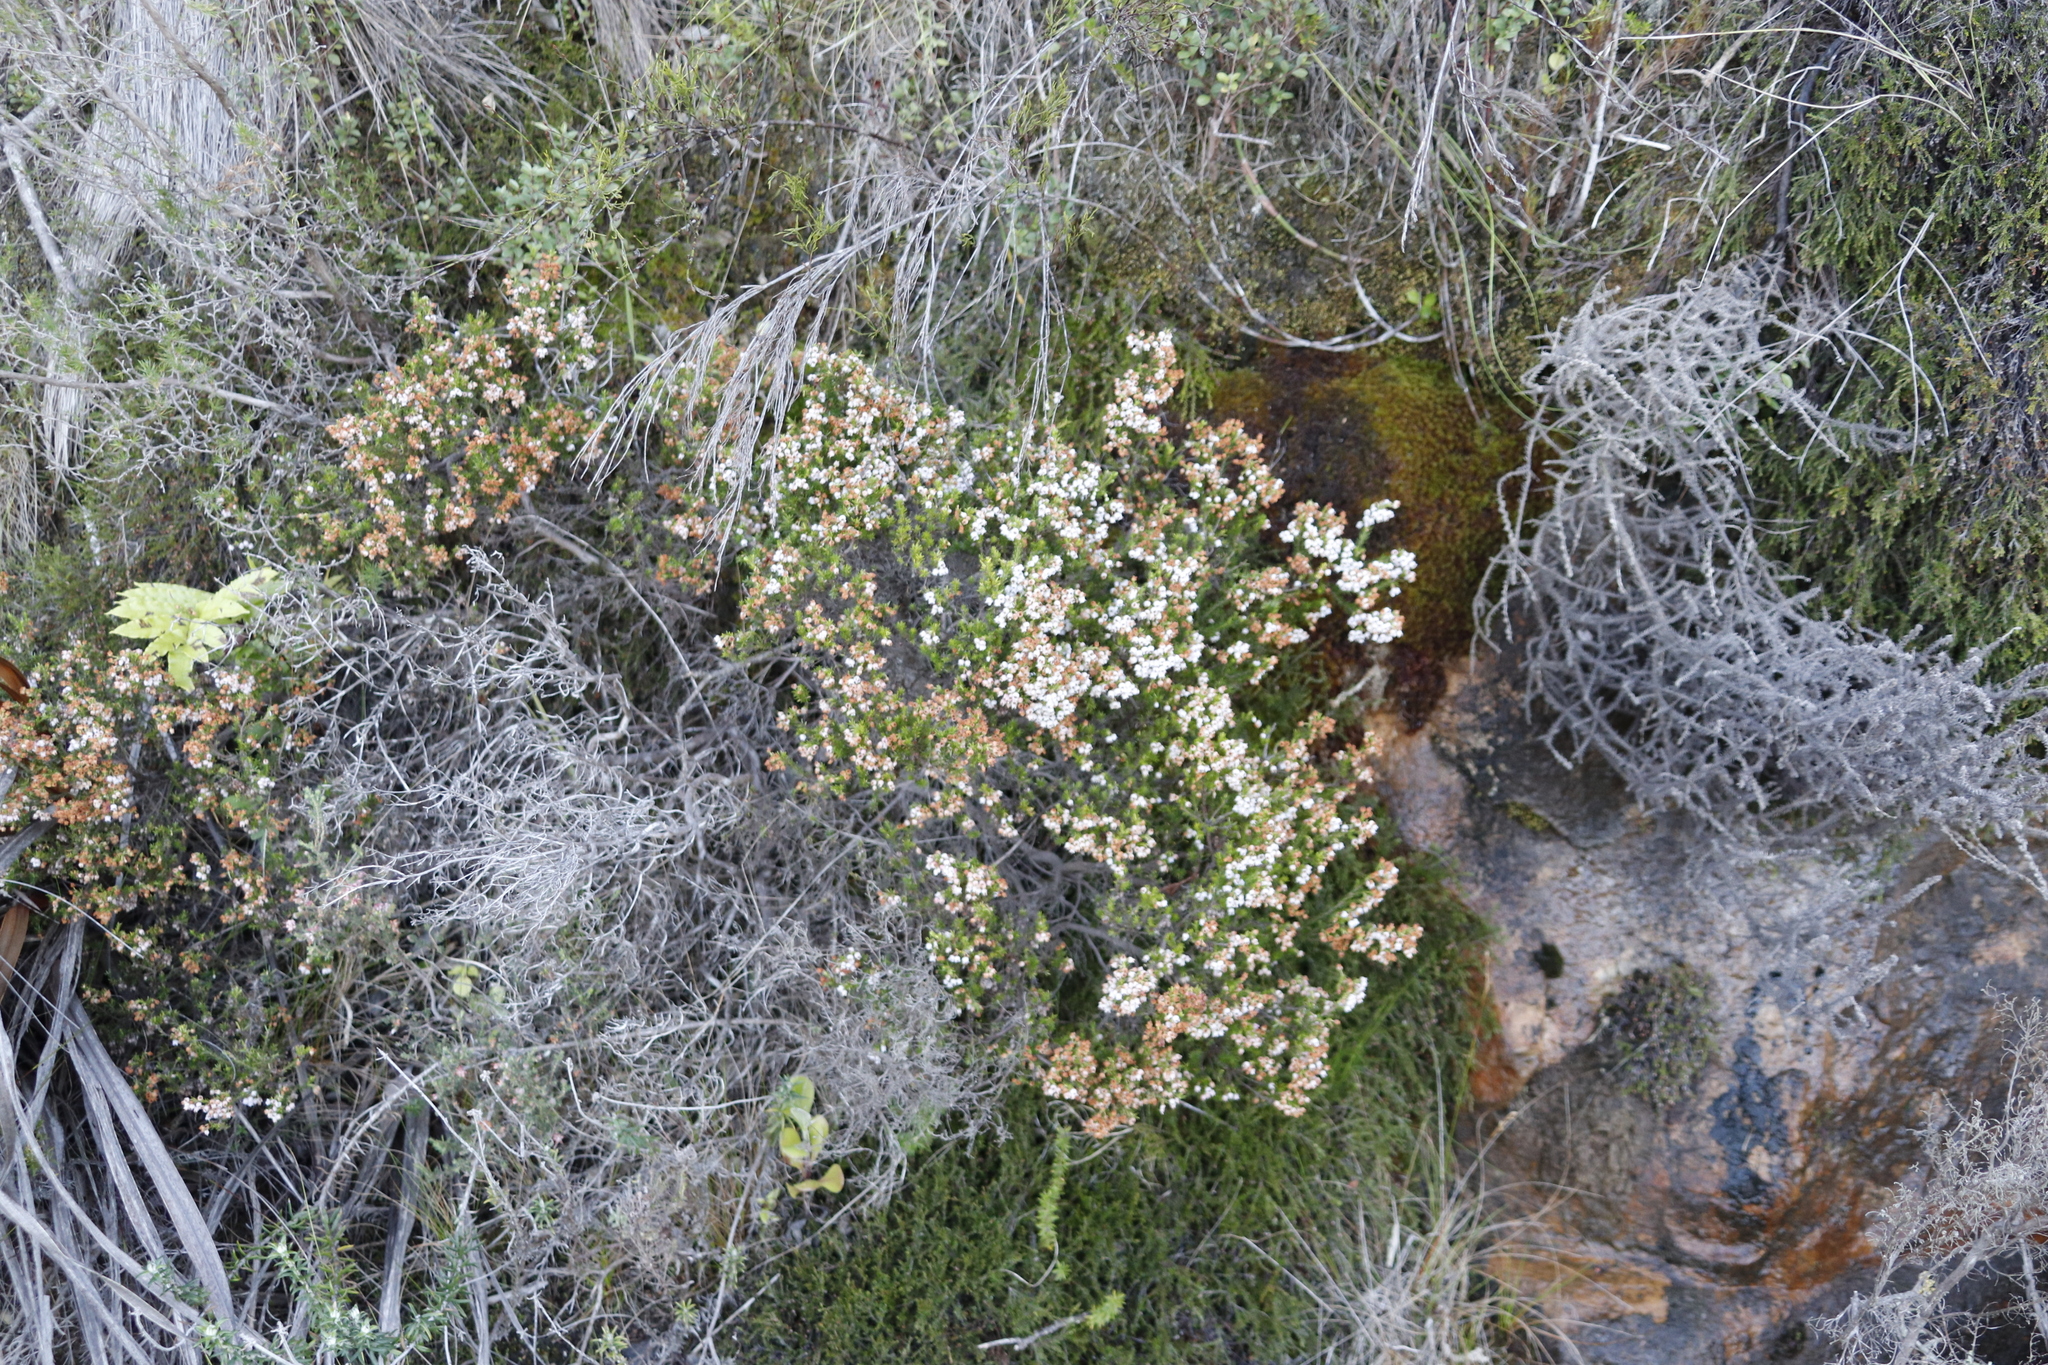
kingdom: Plantae
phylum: Tracheophyta
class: Magnoliopsida
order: Ericales
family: Ericaceae
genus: Erica
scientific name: Erica curvirostris
